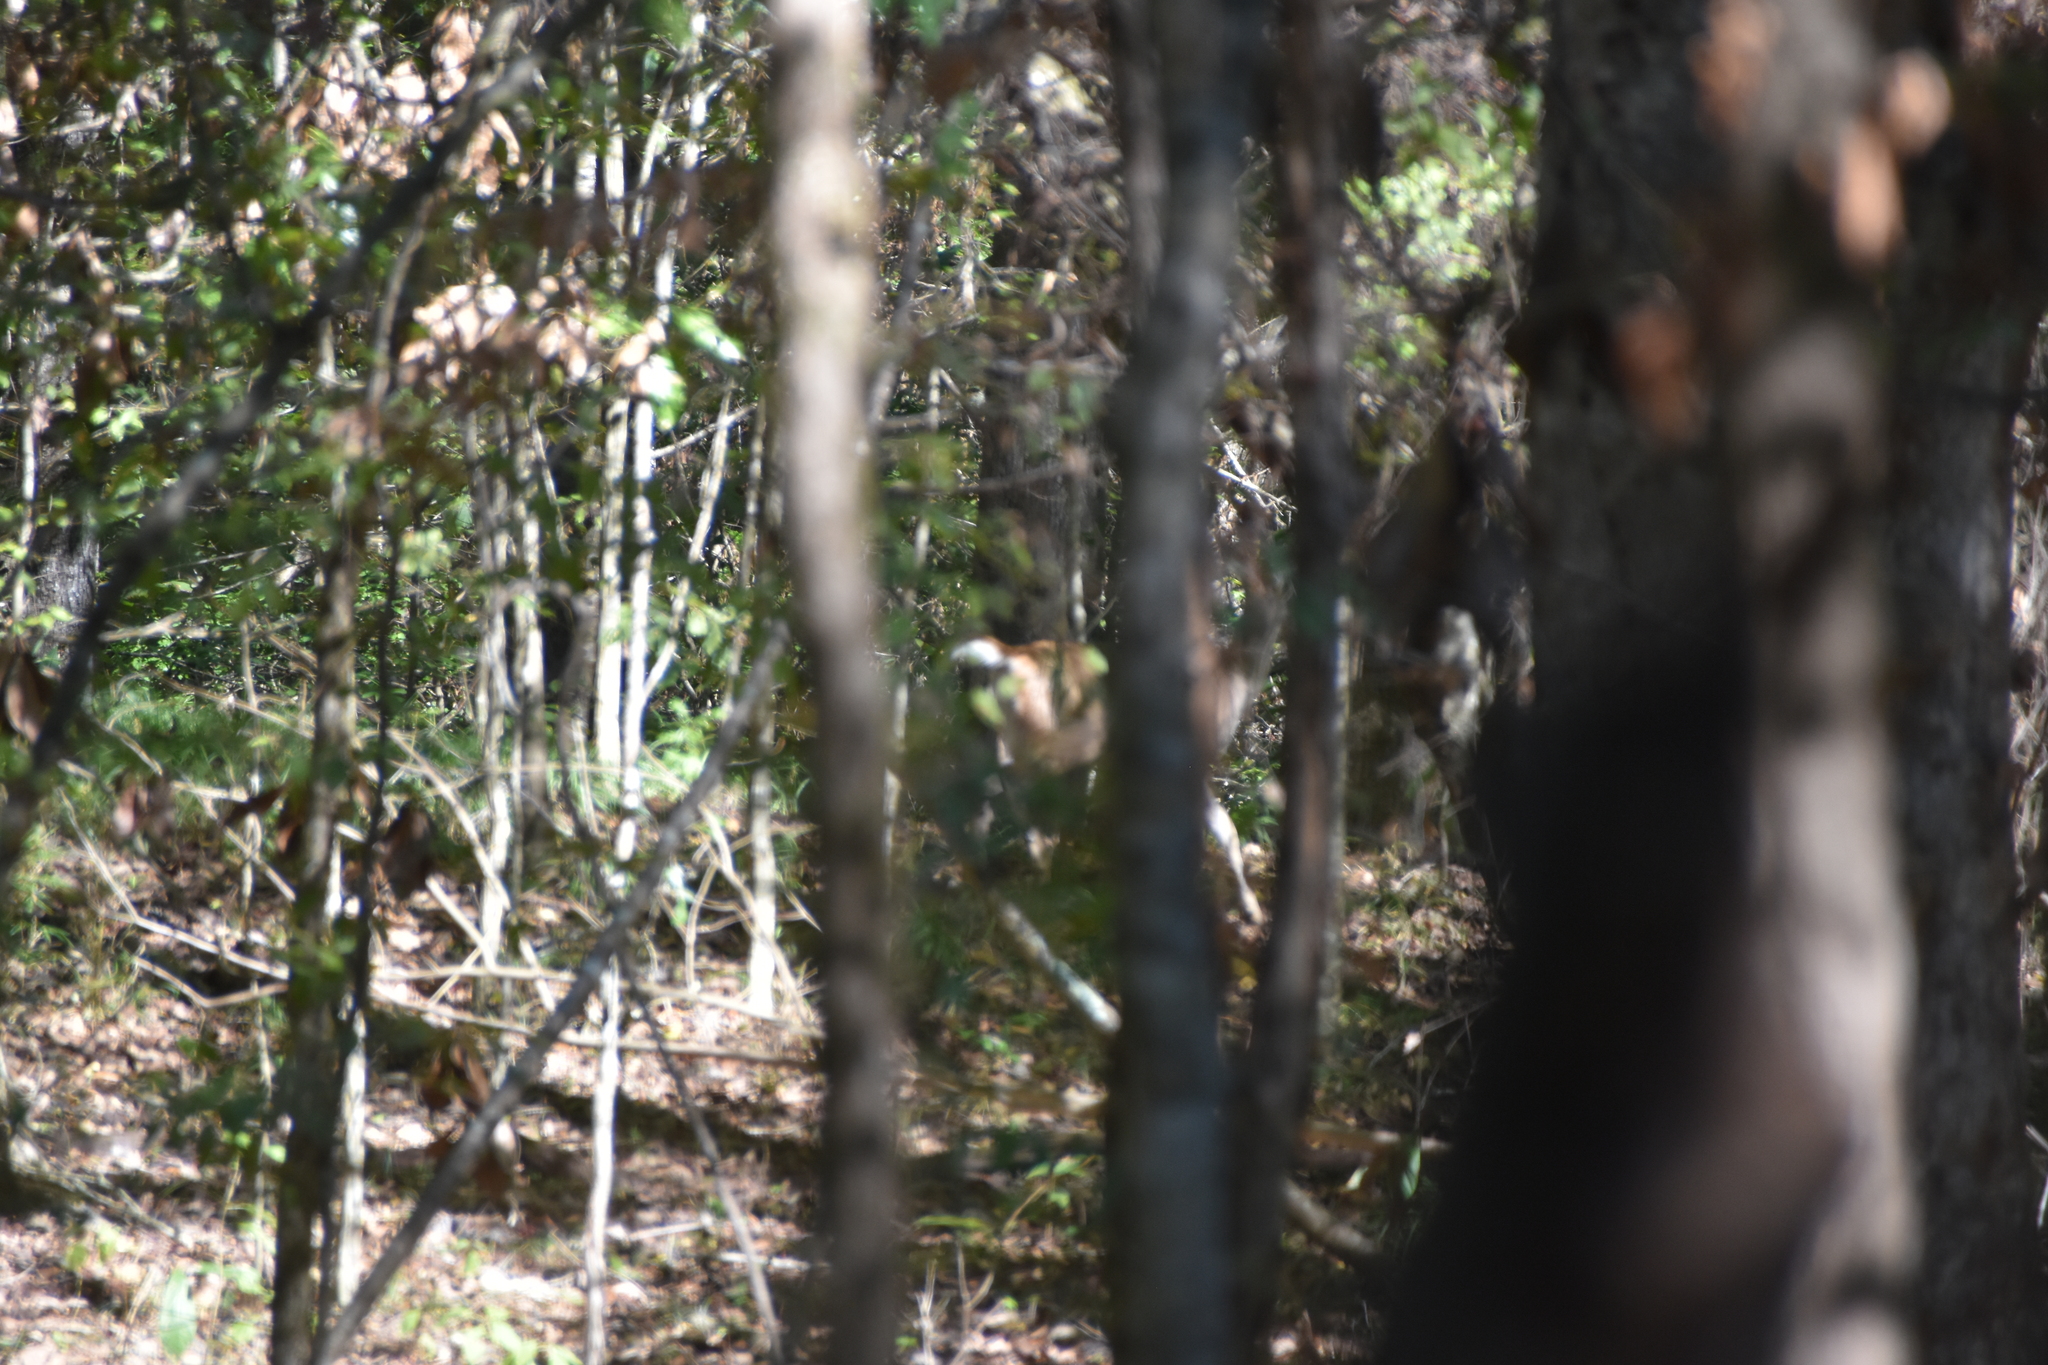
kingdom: Animalia
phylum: Chordata
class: Mammalia
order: Artiodactyla
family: Cervidae
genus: Odocoileus
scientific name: Odocoileus virginianus
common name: White-tailed deer
